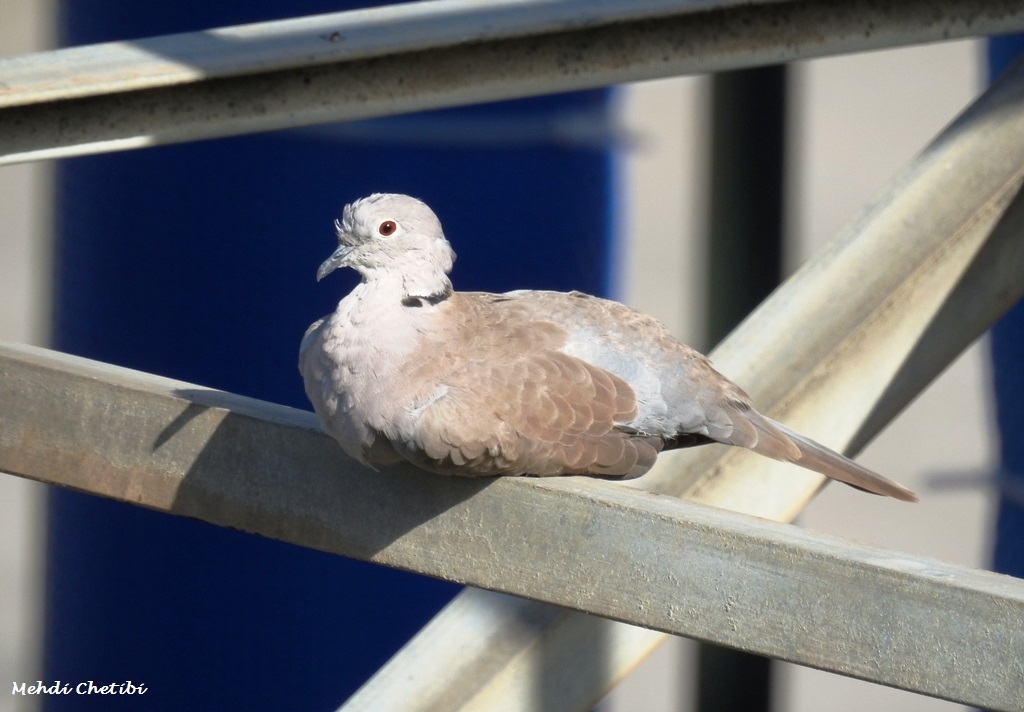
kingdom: Animalia
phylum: Chordata
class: Aves
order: Columbiformes
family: Columbidae
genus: Streptopelia
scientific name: Streptopelia decaocto
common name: Eurasian collared dove
